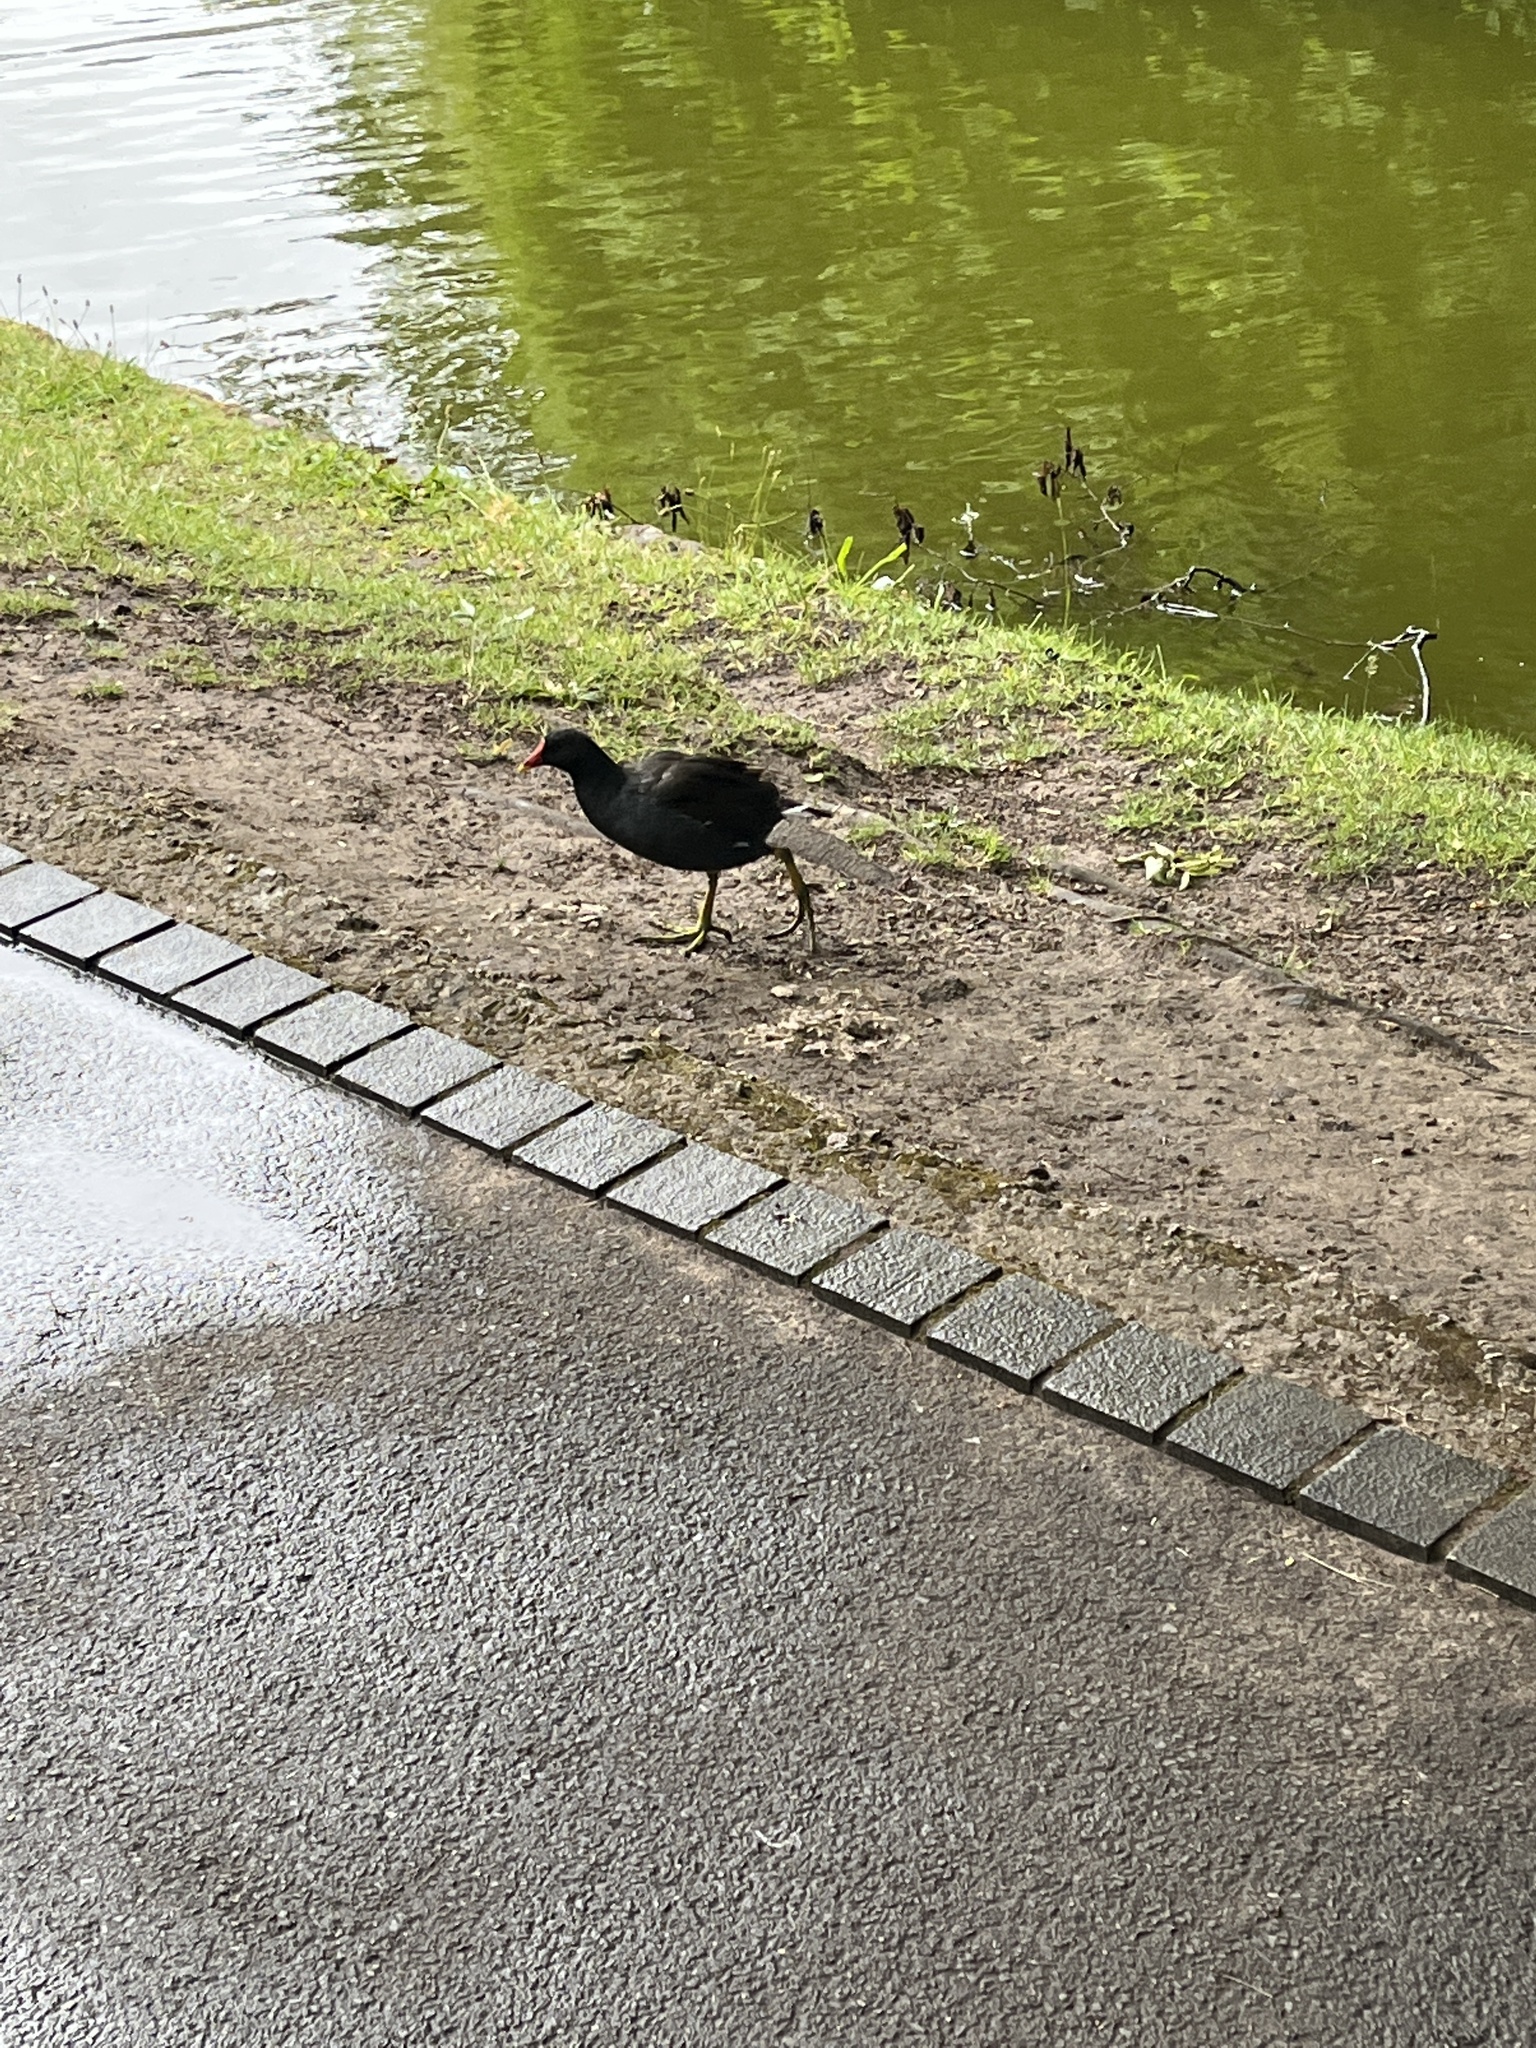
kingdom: Animalia
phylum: Chordata
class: Aves
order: Gruiformes
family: Rallidae
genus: Gallinula
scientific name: Gallinula chloropus
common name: Common moorhen
